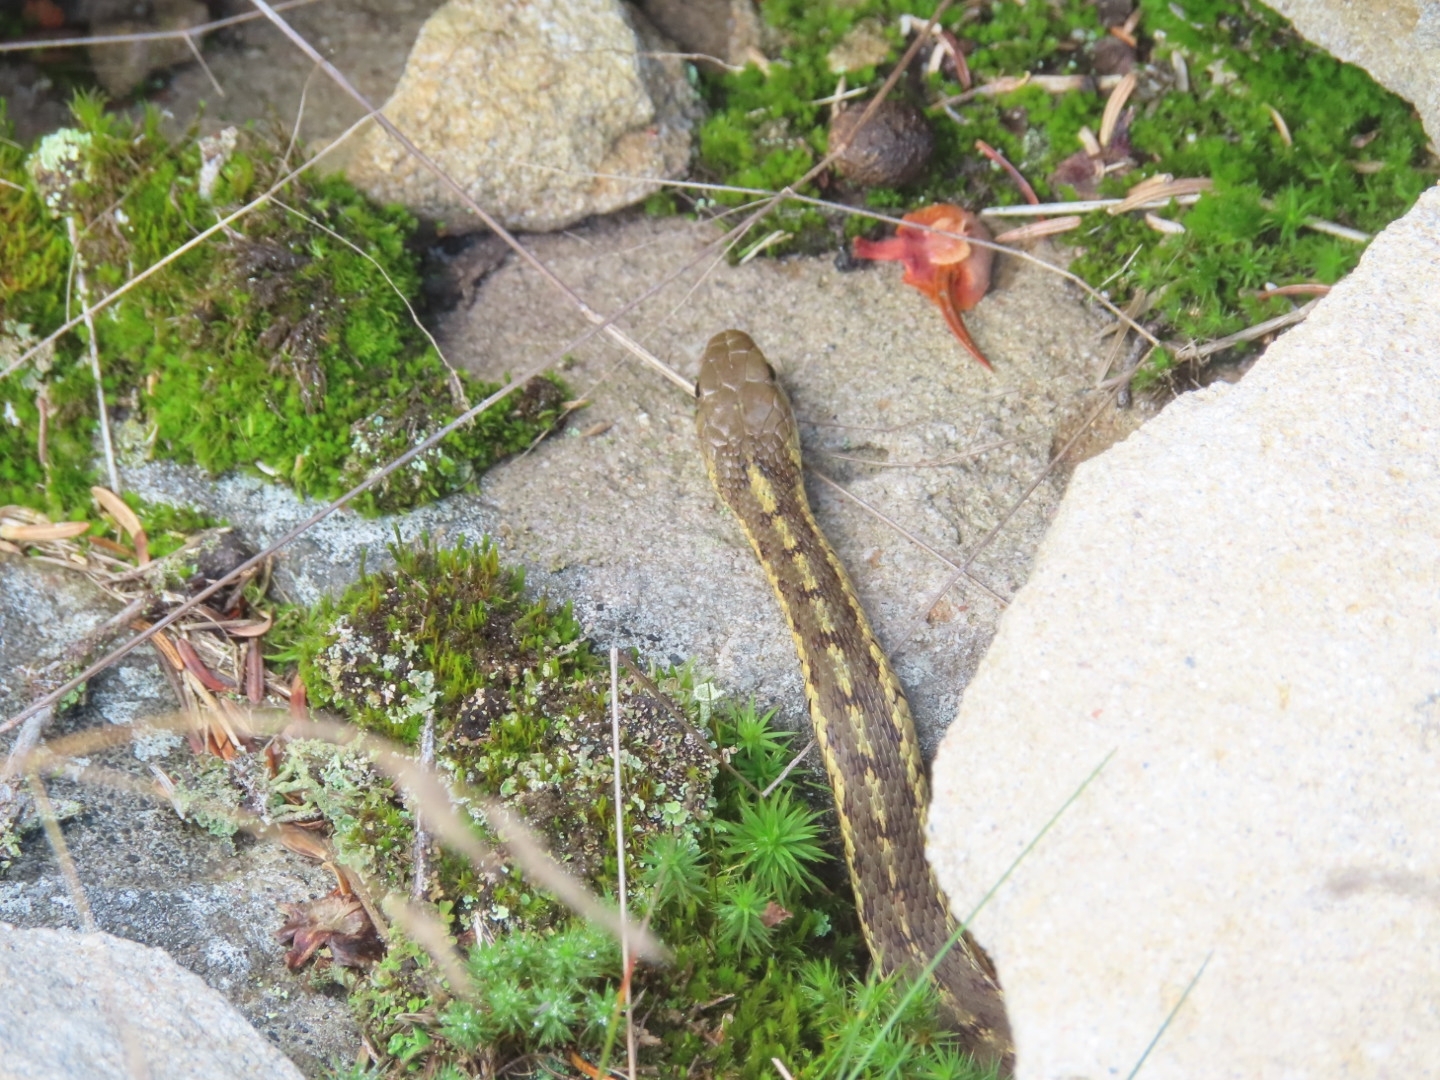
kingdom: Animalia
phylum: Chordata
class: Squamata
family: Colubridae
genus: Thamnophis
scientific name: Thamnophis sirtalis
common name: Common garter snake
